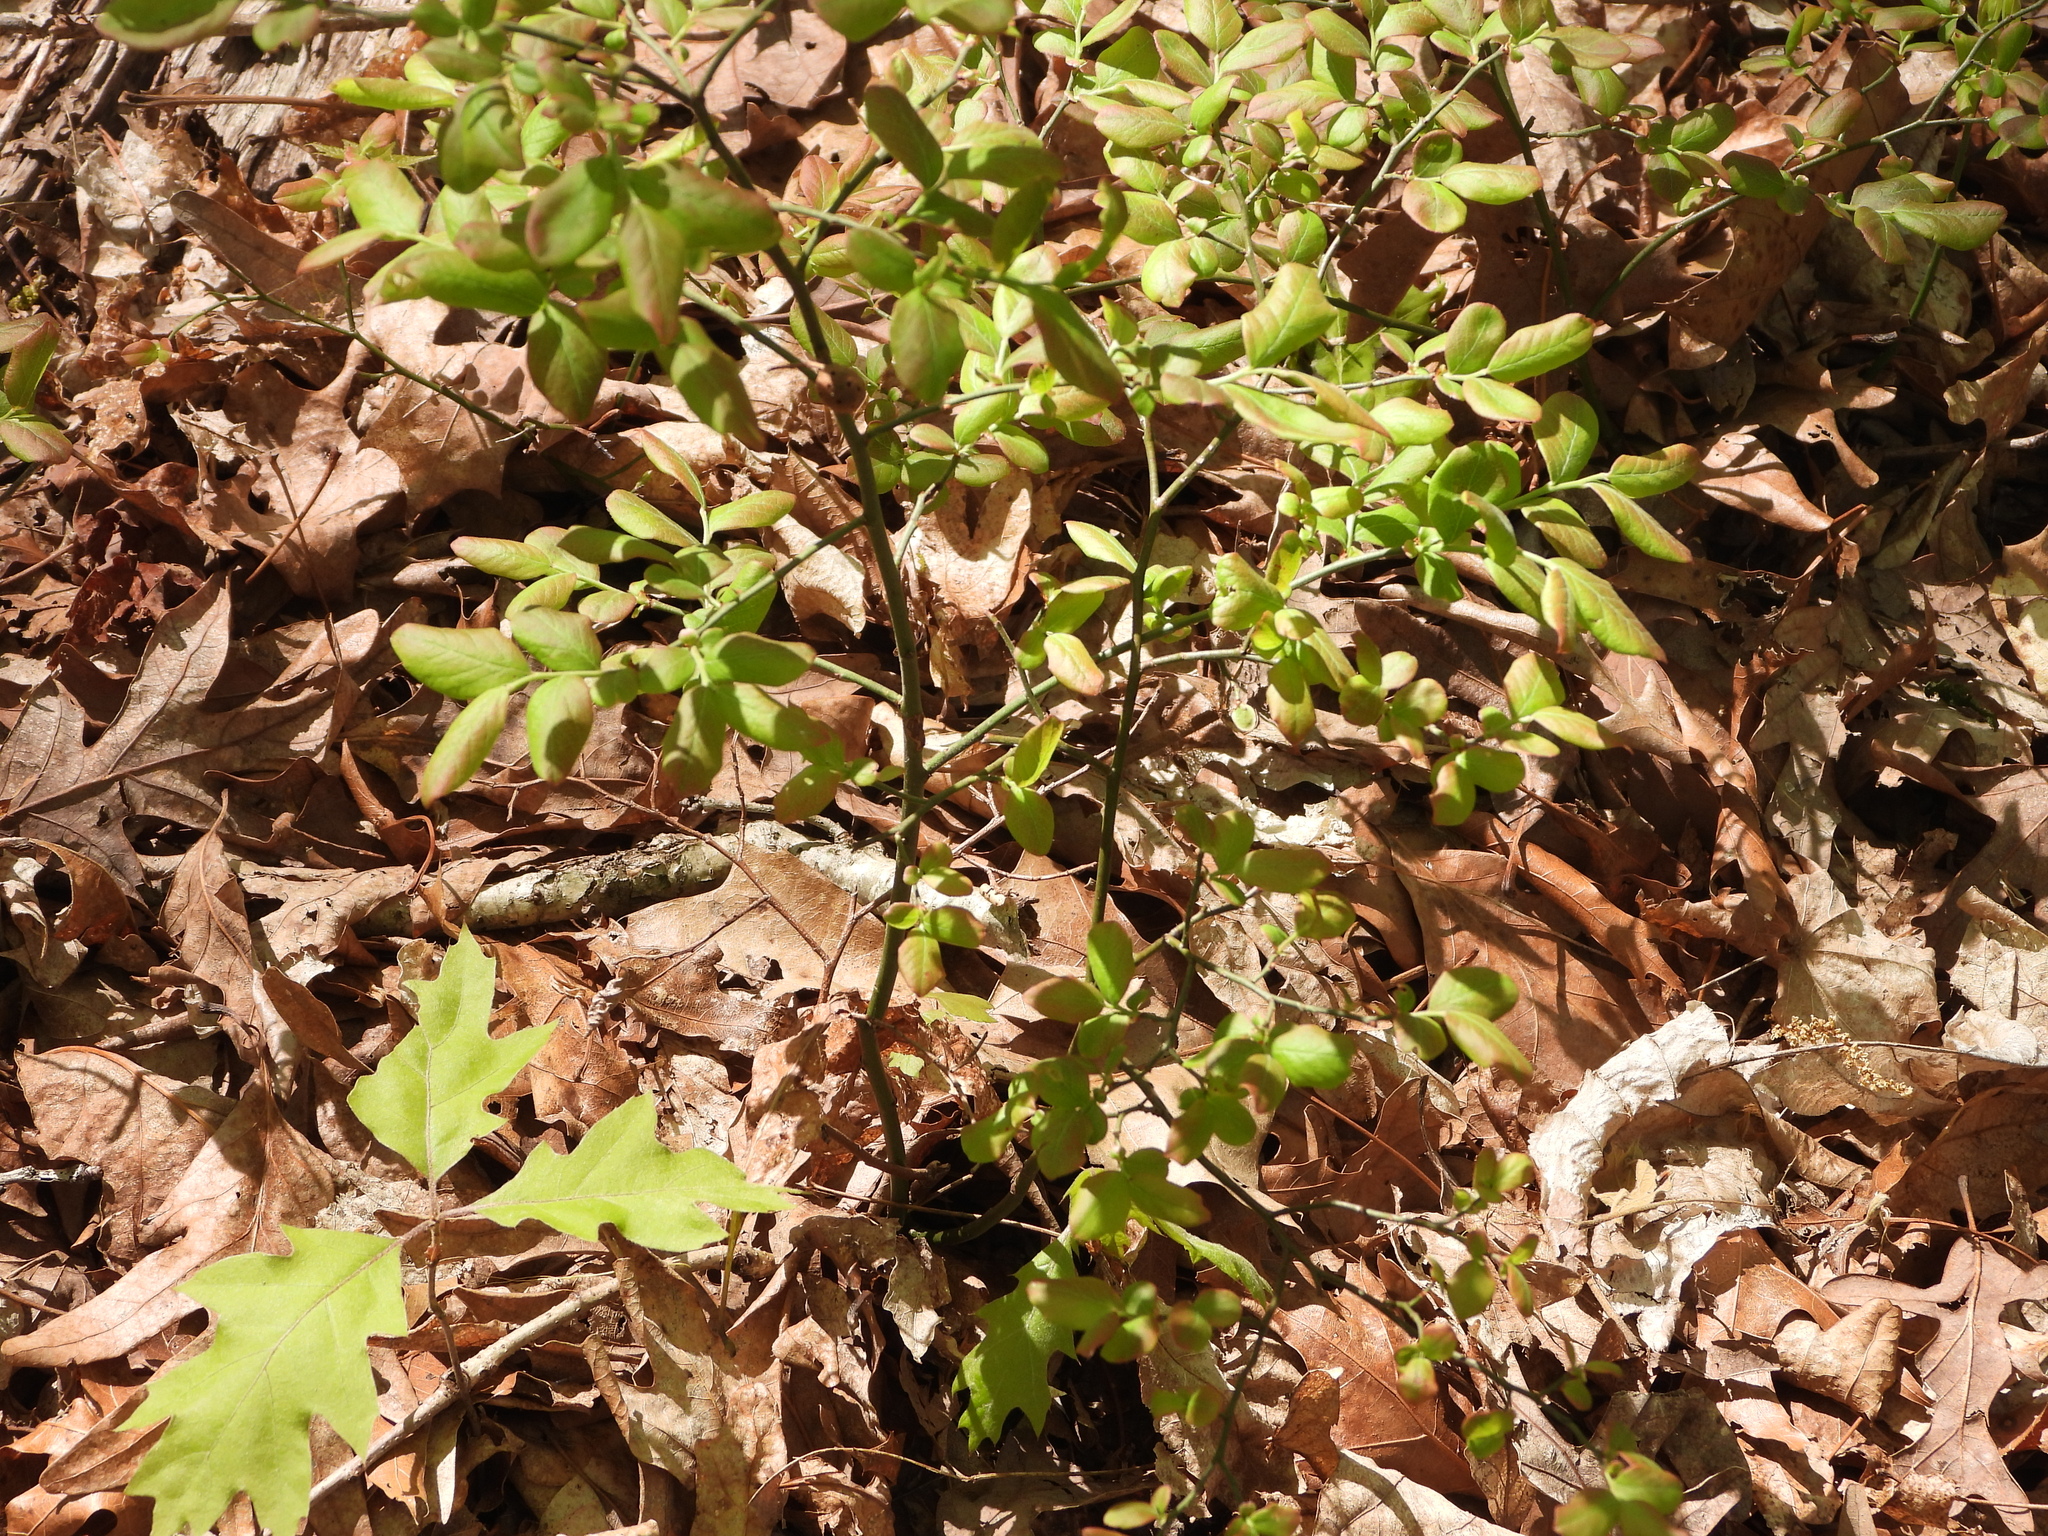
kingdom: Plantae
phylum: Tracheophyta
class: Magnoliopsida
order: Ericales
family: Ericaceae
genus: Vaccinium
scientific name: Vaccinium pallidum
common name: Blue ridge blueberry
